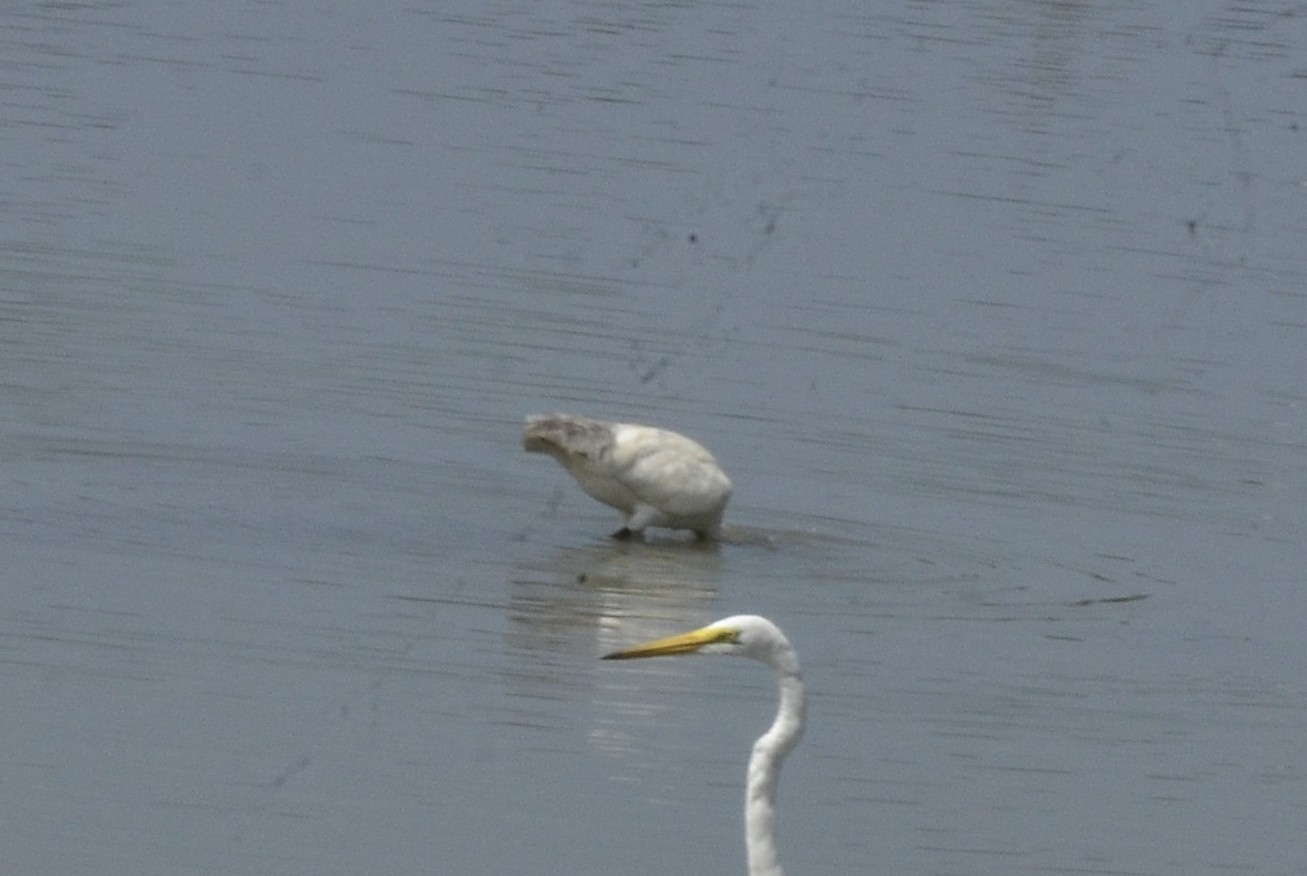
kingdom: Animalia
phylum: Chordata
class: Aves
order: Pelecaniformes
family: Threskiornithidae
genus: Threskiornis
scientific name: Threskiornis melanocephalus
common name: Black-headed ibis
